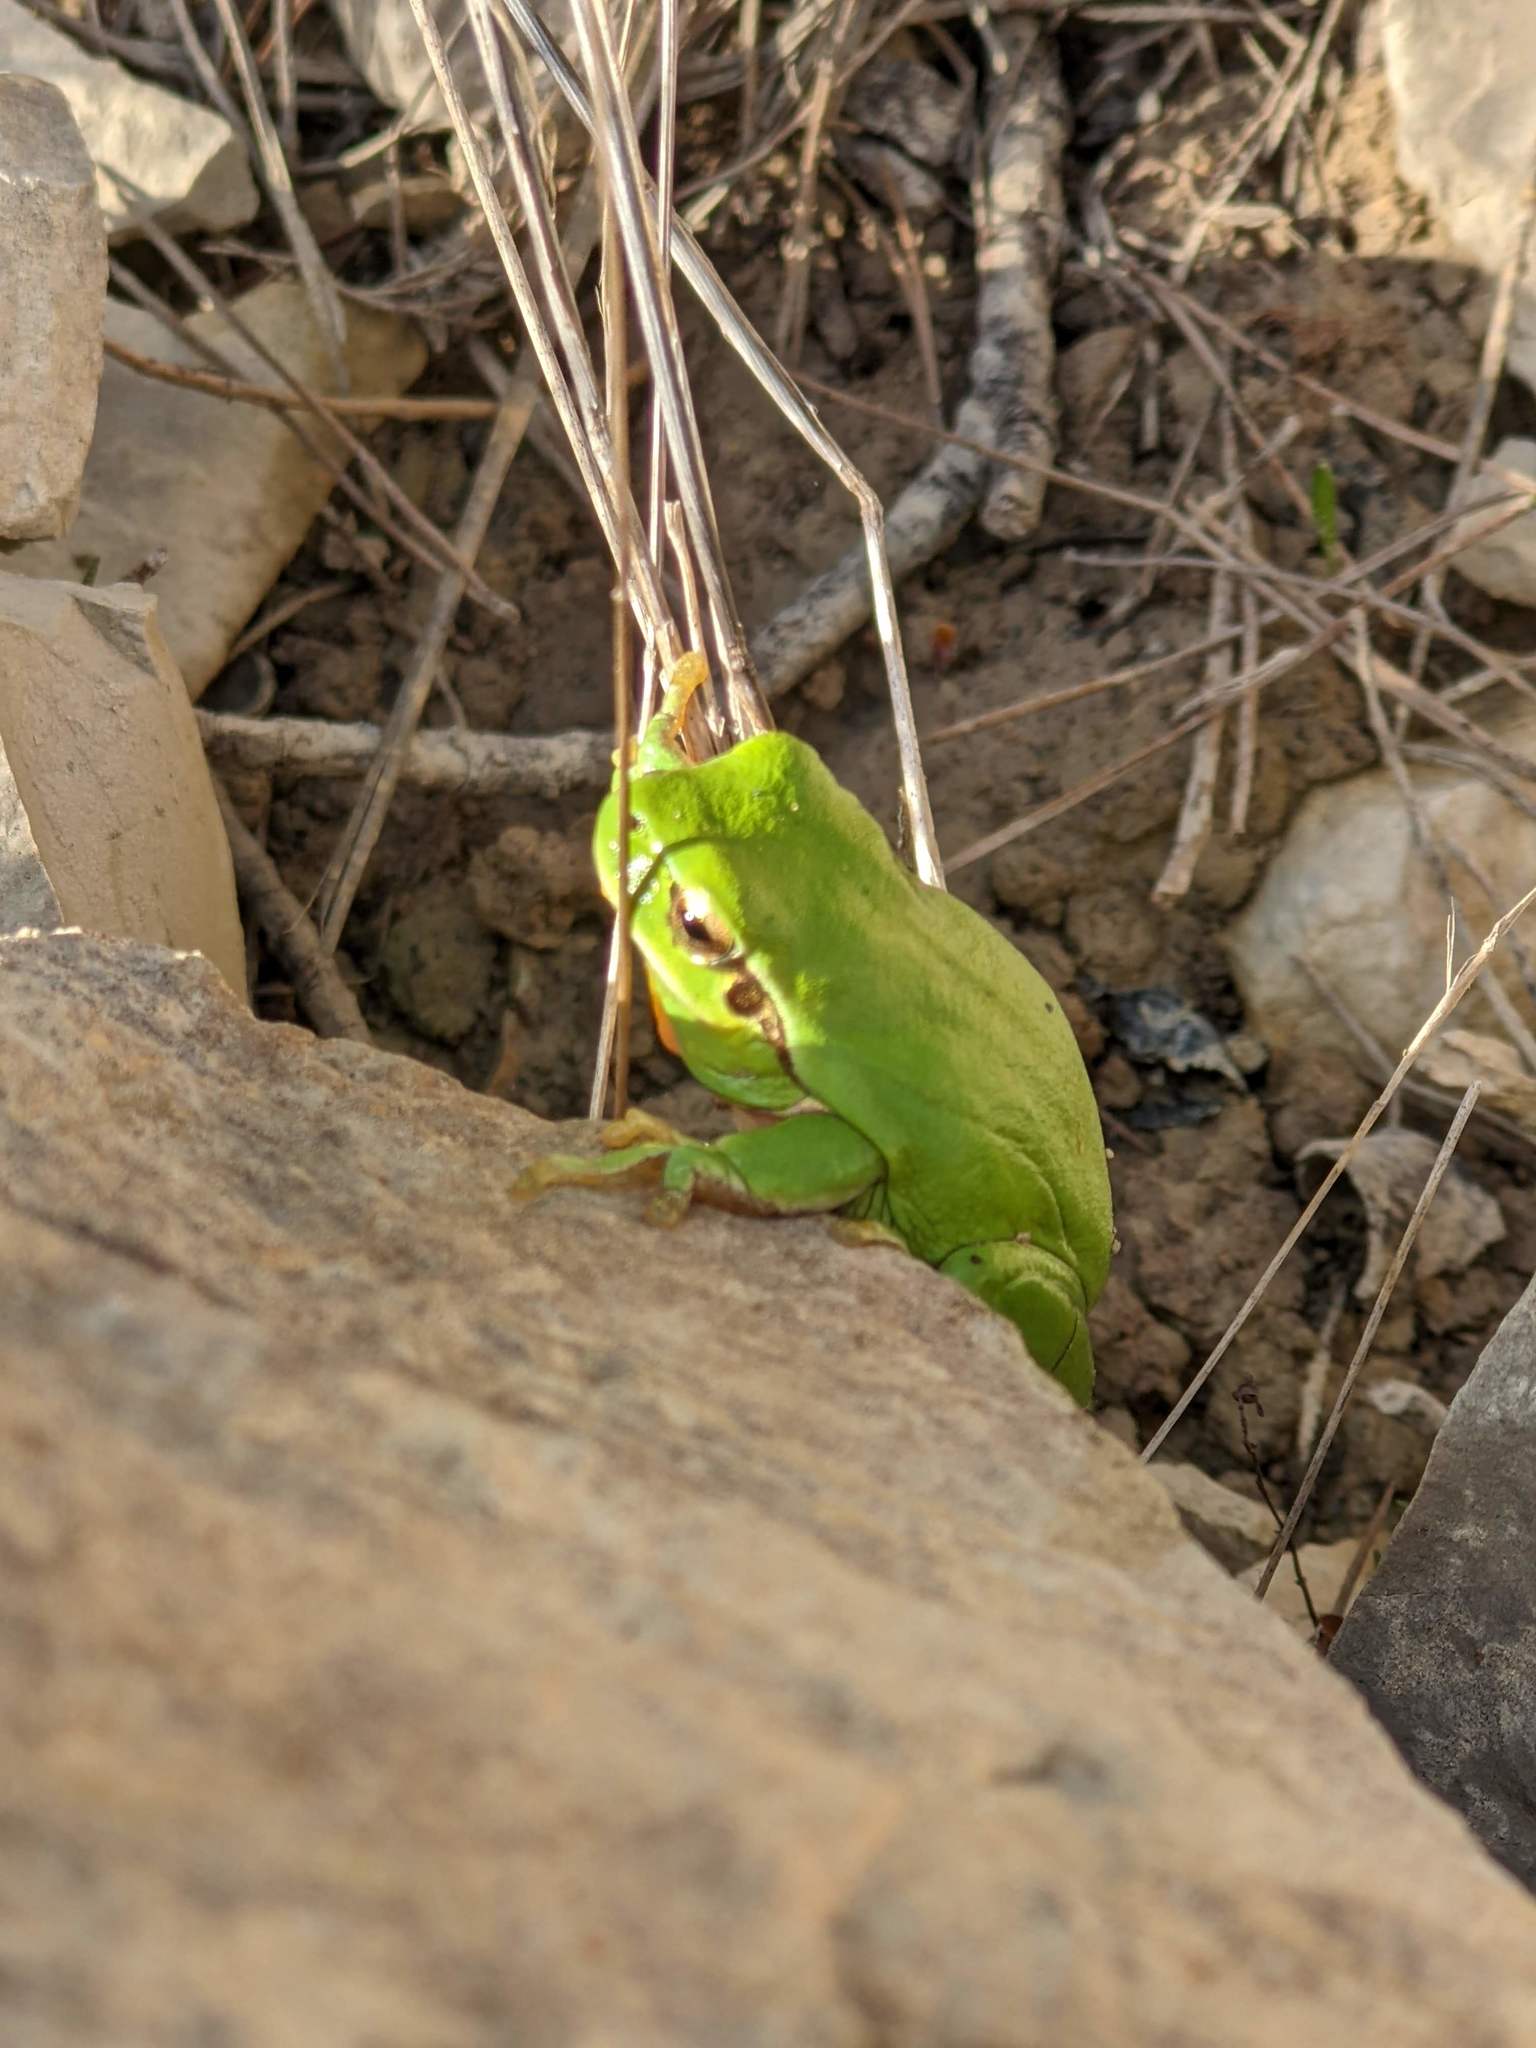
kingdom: Animalia
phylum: Chordata
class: Amphibia
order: Anura
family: Hylidae
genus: Hyla
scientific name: Hyla meridionalis
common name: Stripeless tree frog
